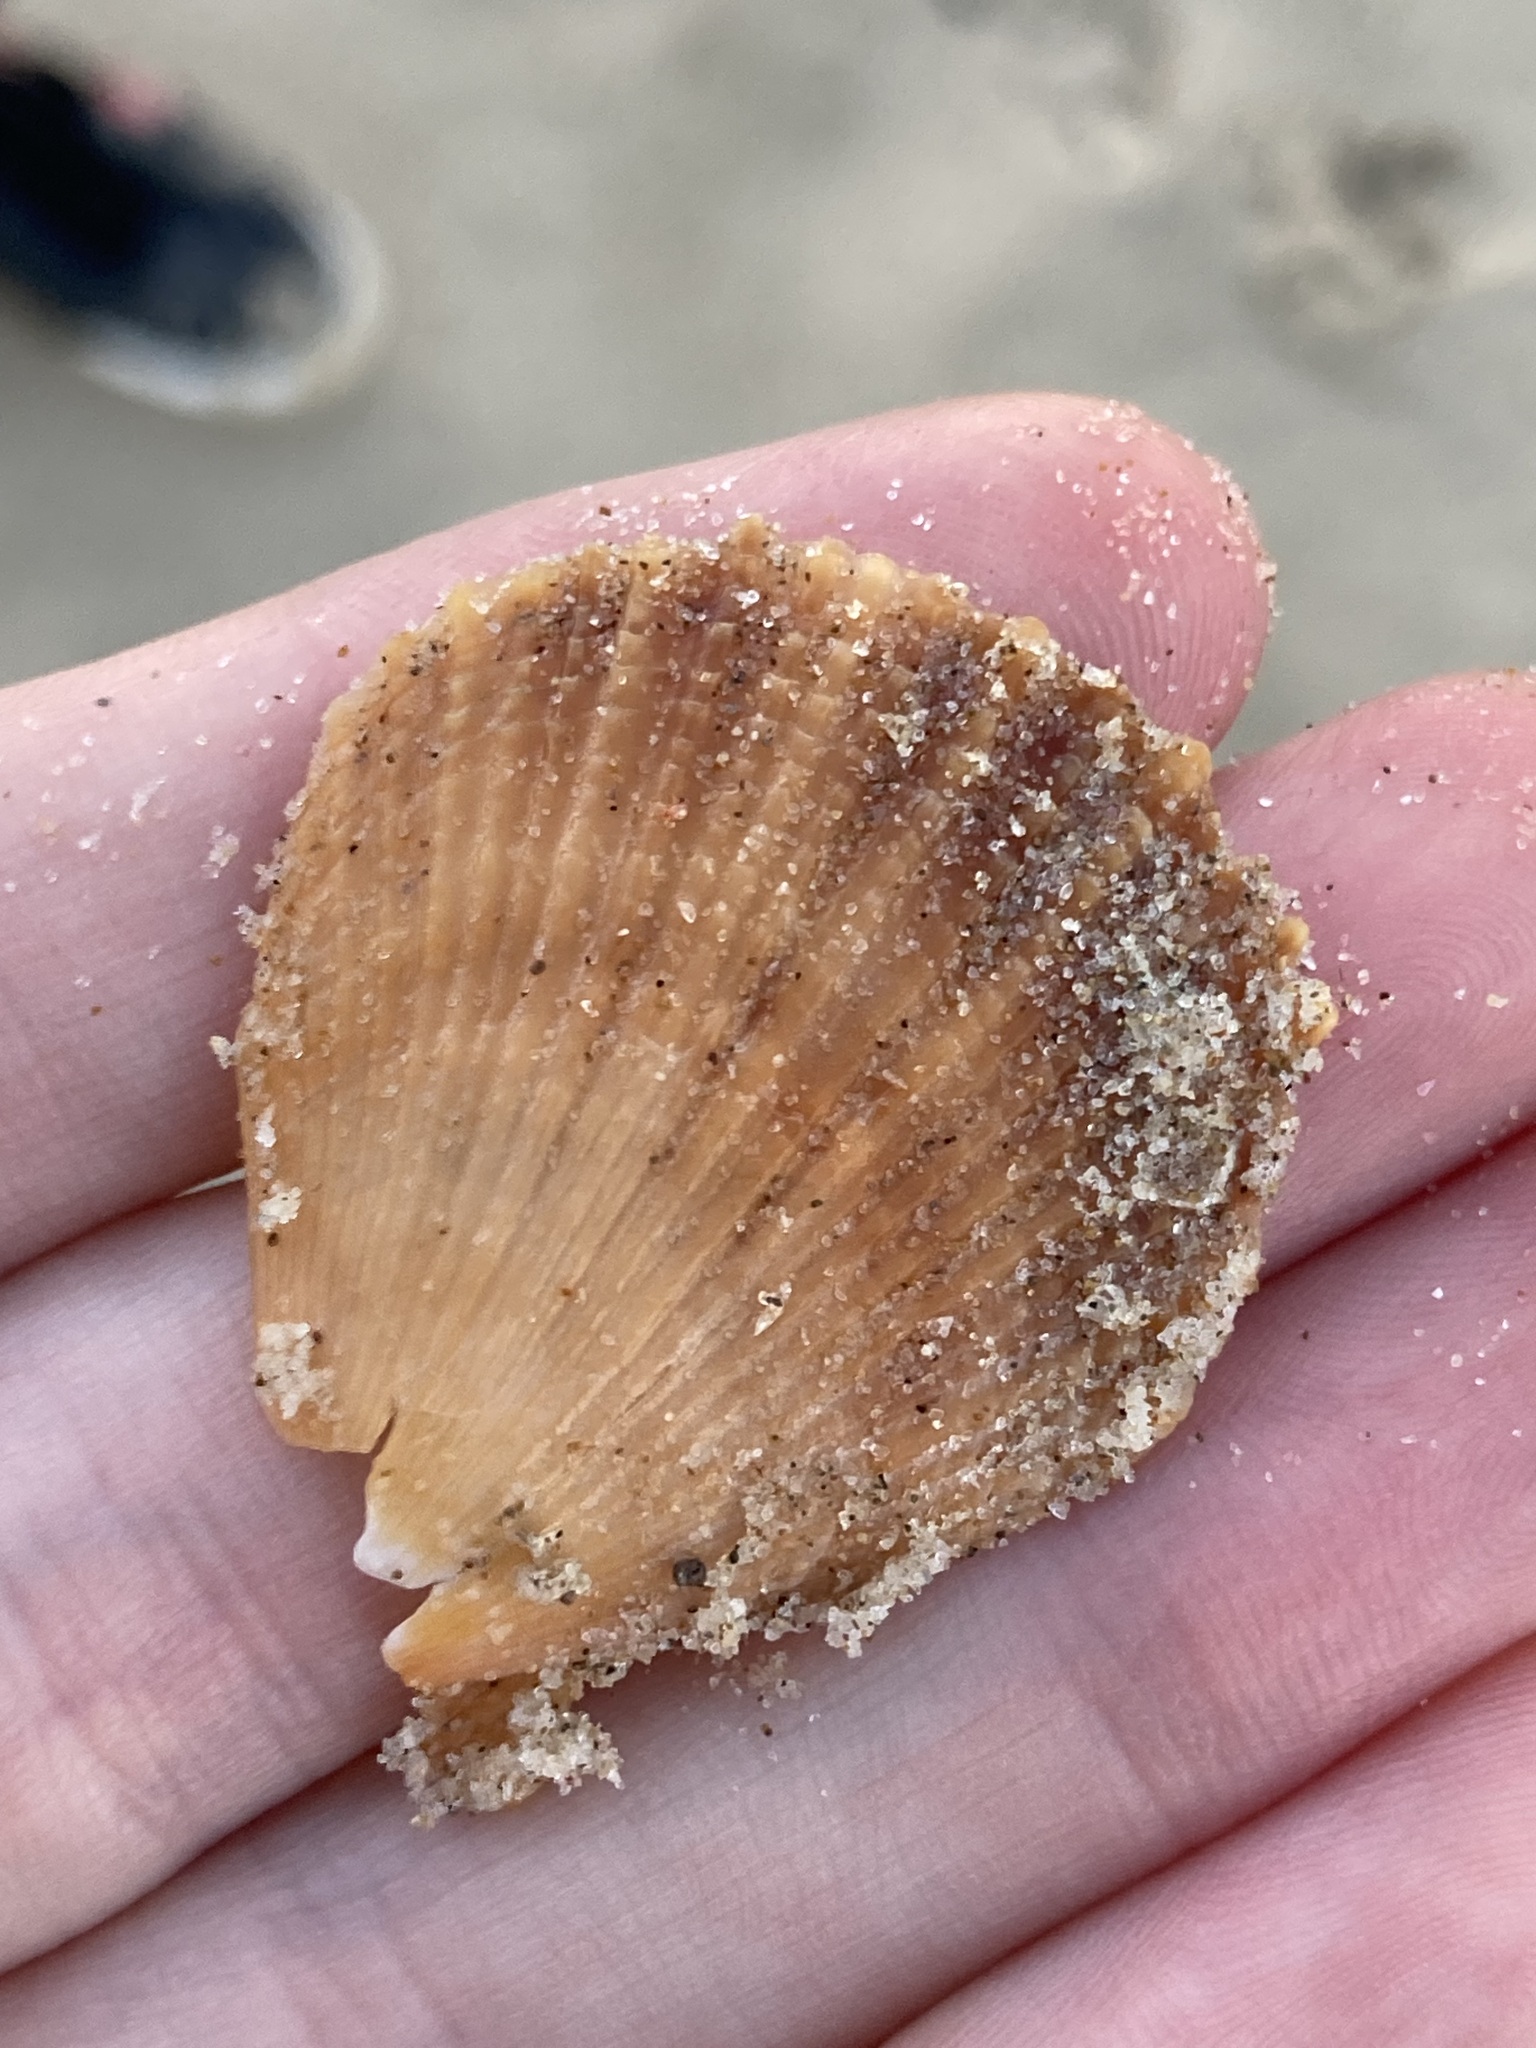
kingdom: Animalia
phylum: Mollusca
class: Bivalvia
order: Pectinida
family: Pectinidae
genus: Scaeochlamys
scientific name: Scaeochlamys livida
